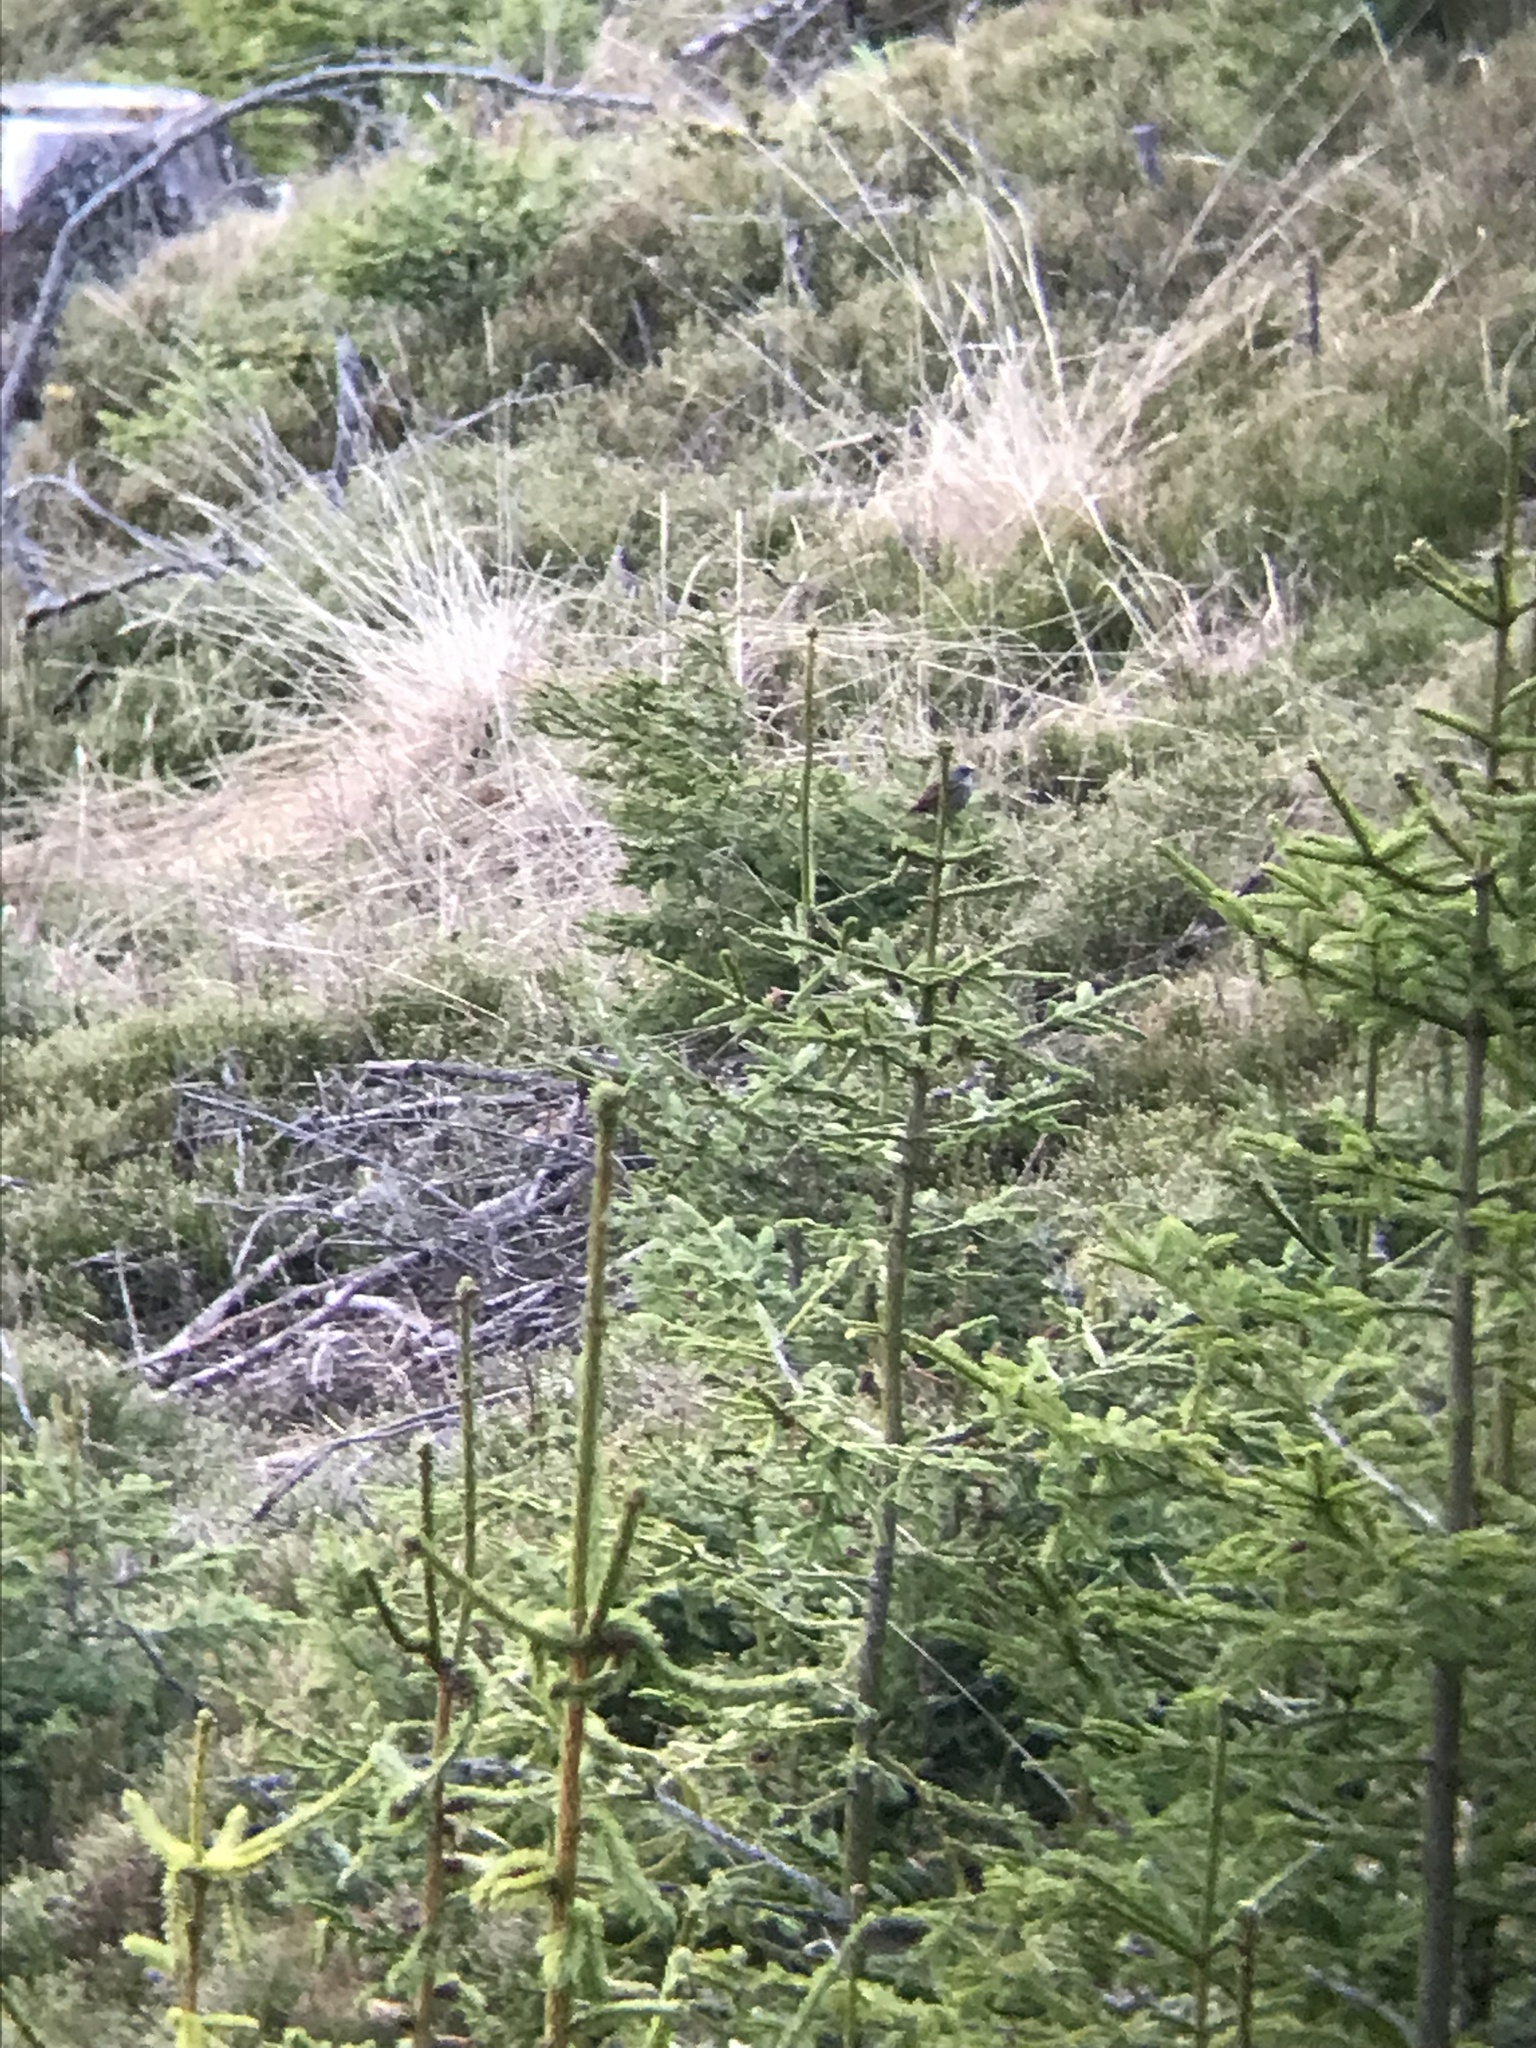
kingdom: Animalia
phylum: Chordata
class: Aves
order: Passeriformes
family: Prunellidae
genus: Prunella
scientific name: Prunella modularis
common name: Dunnock
